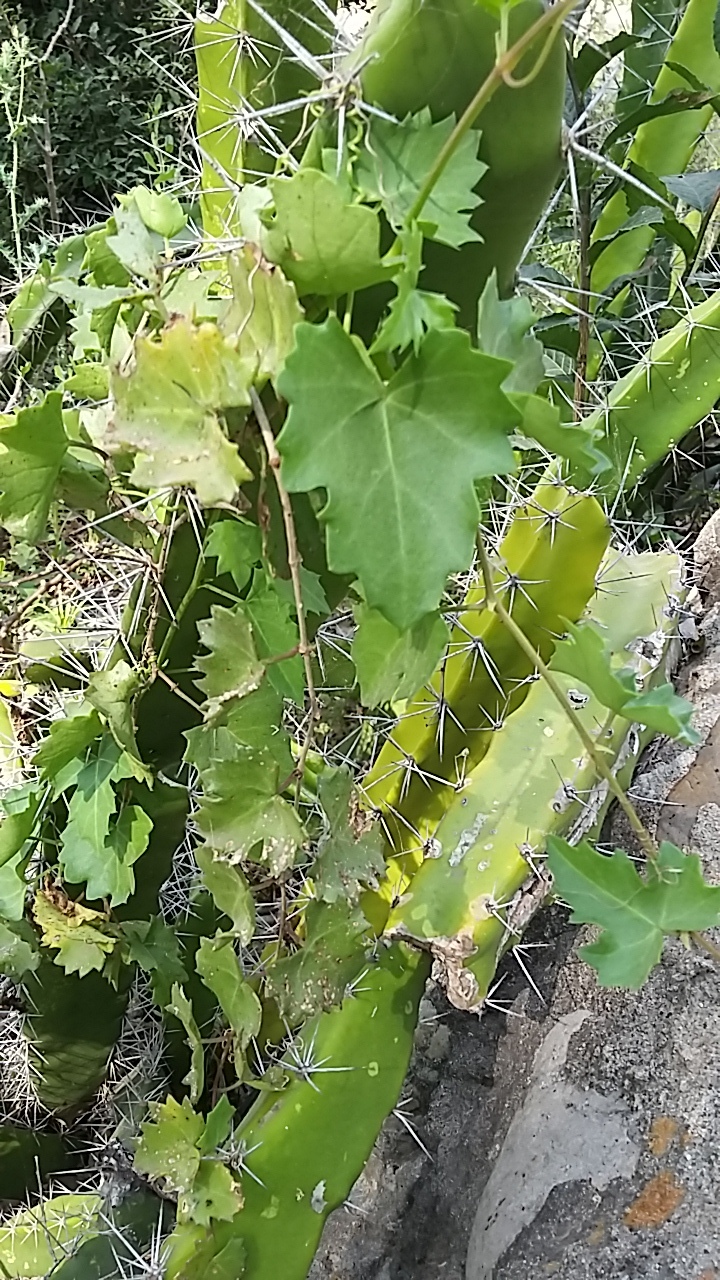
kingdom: Plantae
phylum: Tracheophyta
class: Magnoliopsida
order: Vitales
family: Vitaceae
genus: Cissus
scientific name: Cissus trifoliata
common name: Vine-sorrel
